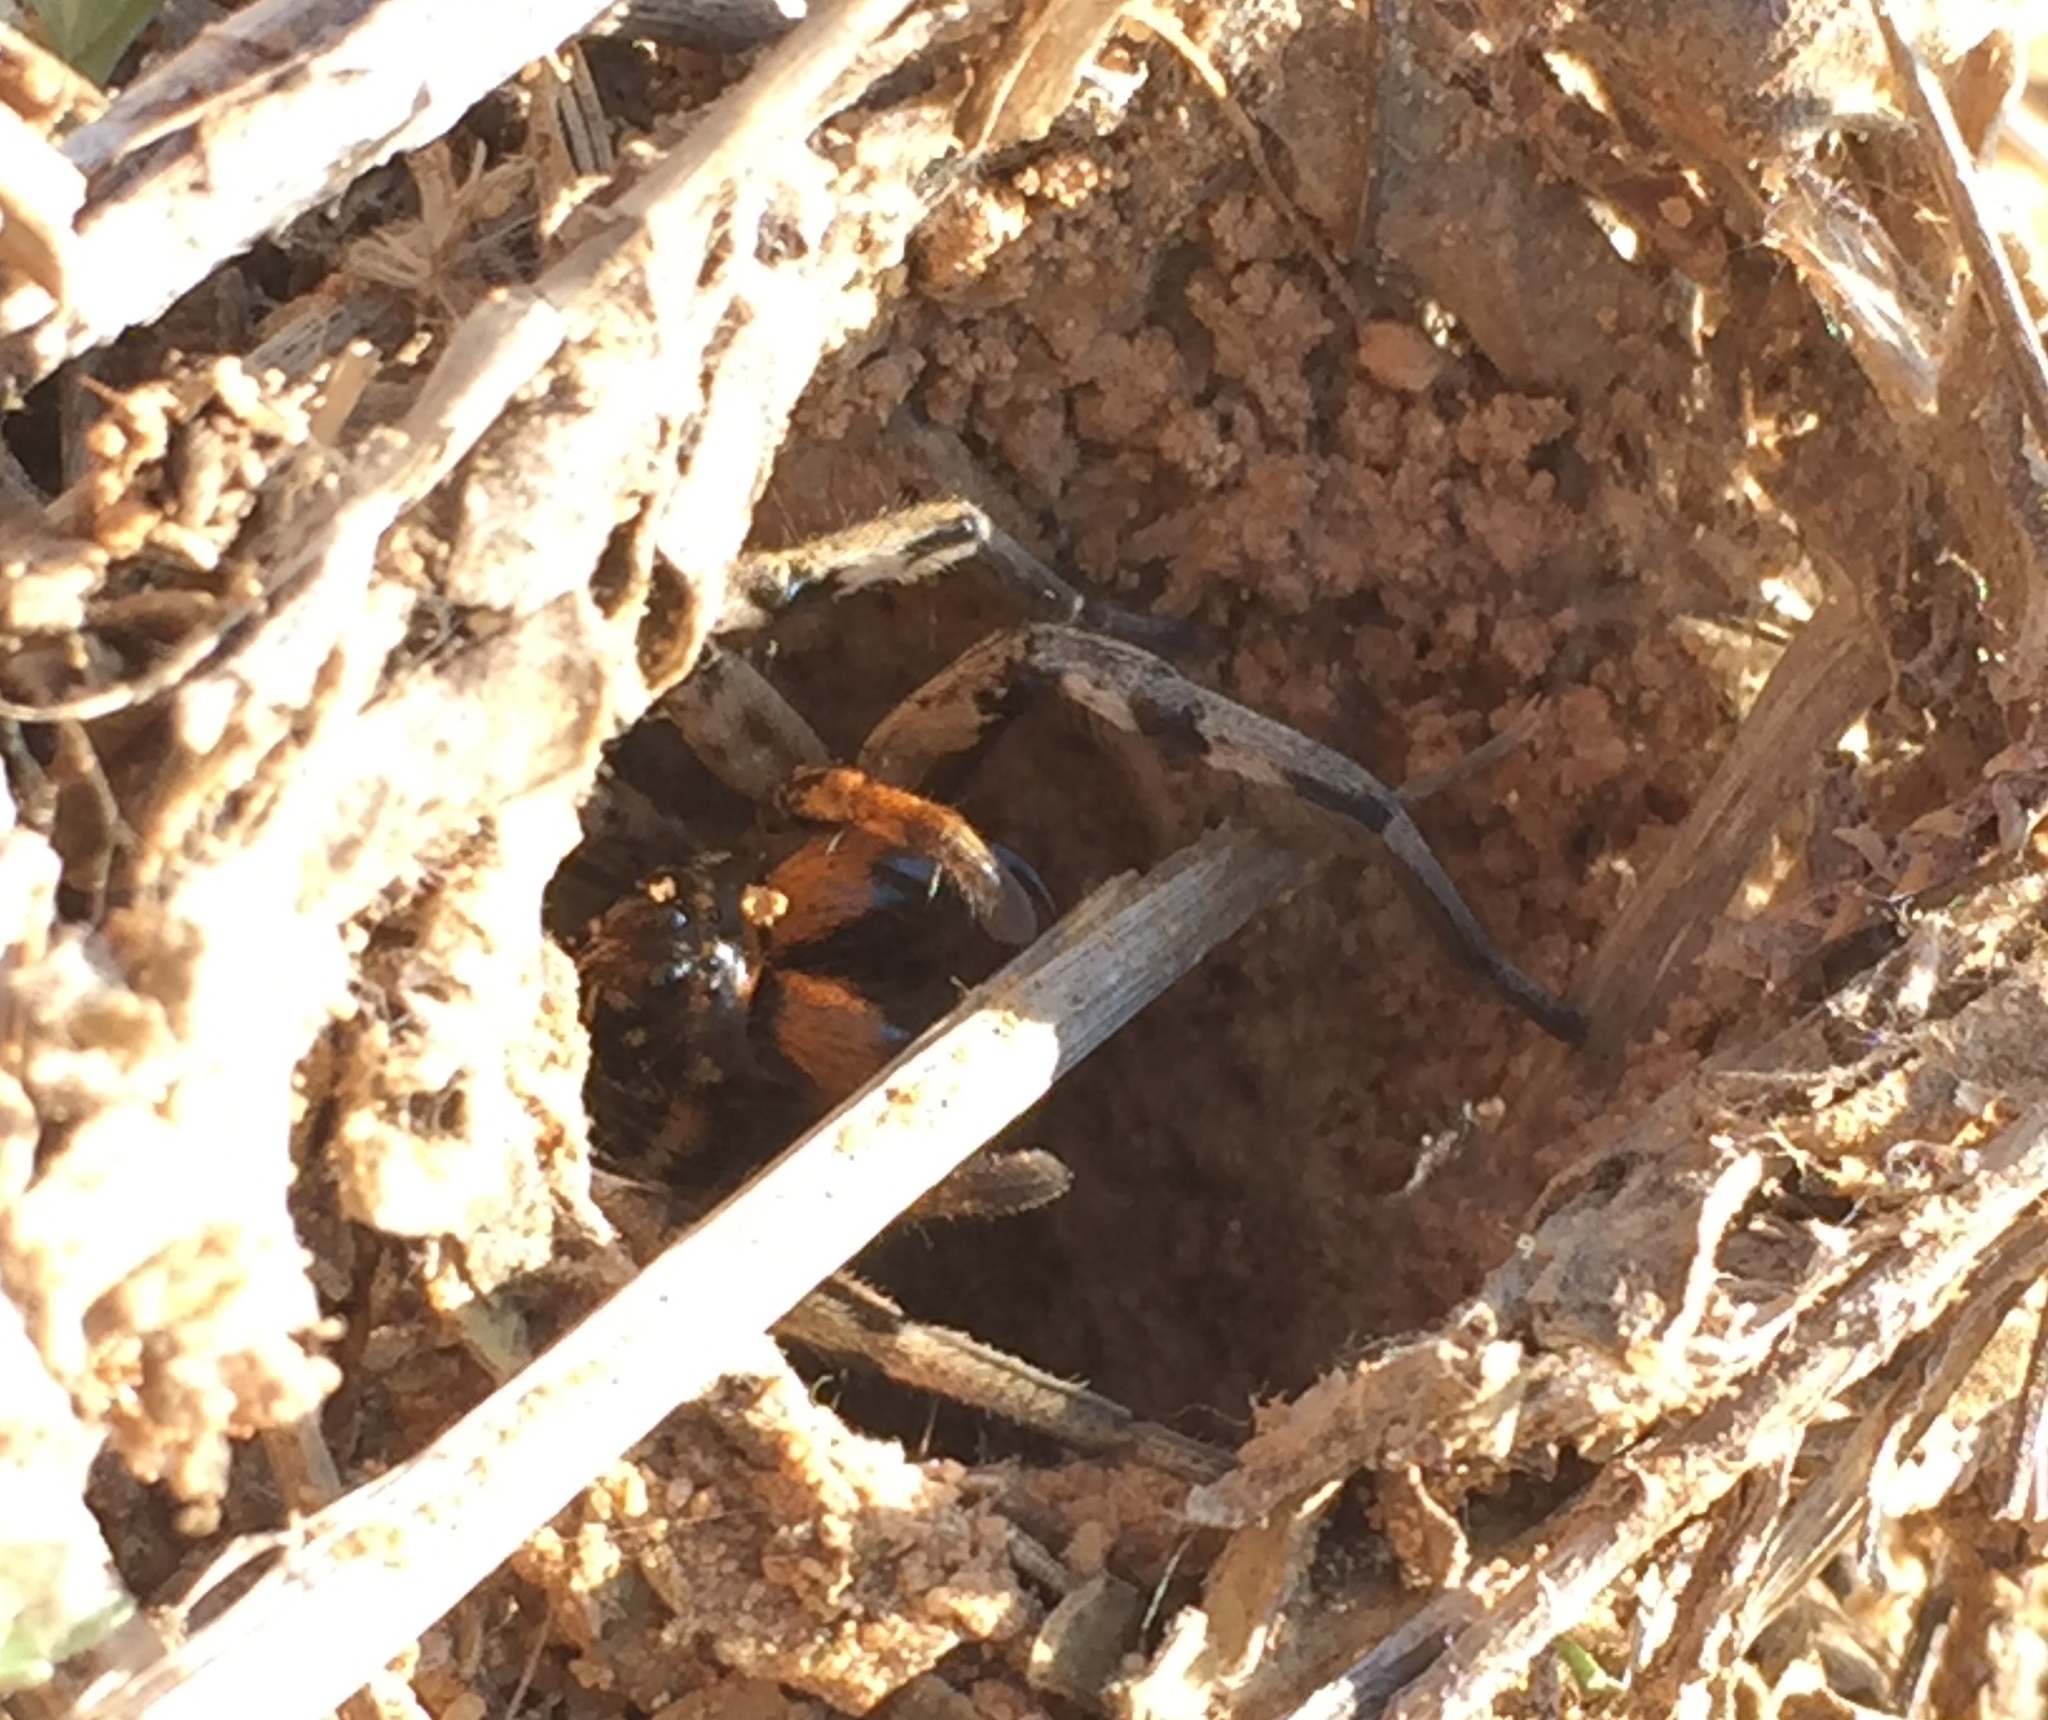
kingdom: Animalia
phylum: Arthropoda
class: Arachnida
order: Araneae
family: Lycosidae
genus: Geolycosa
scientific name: Geolycosa vultuosa
